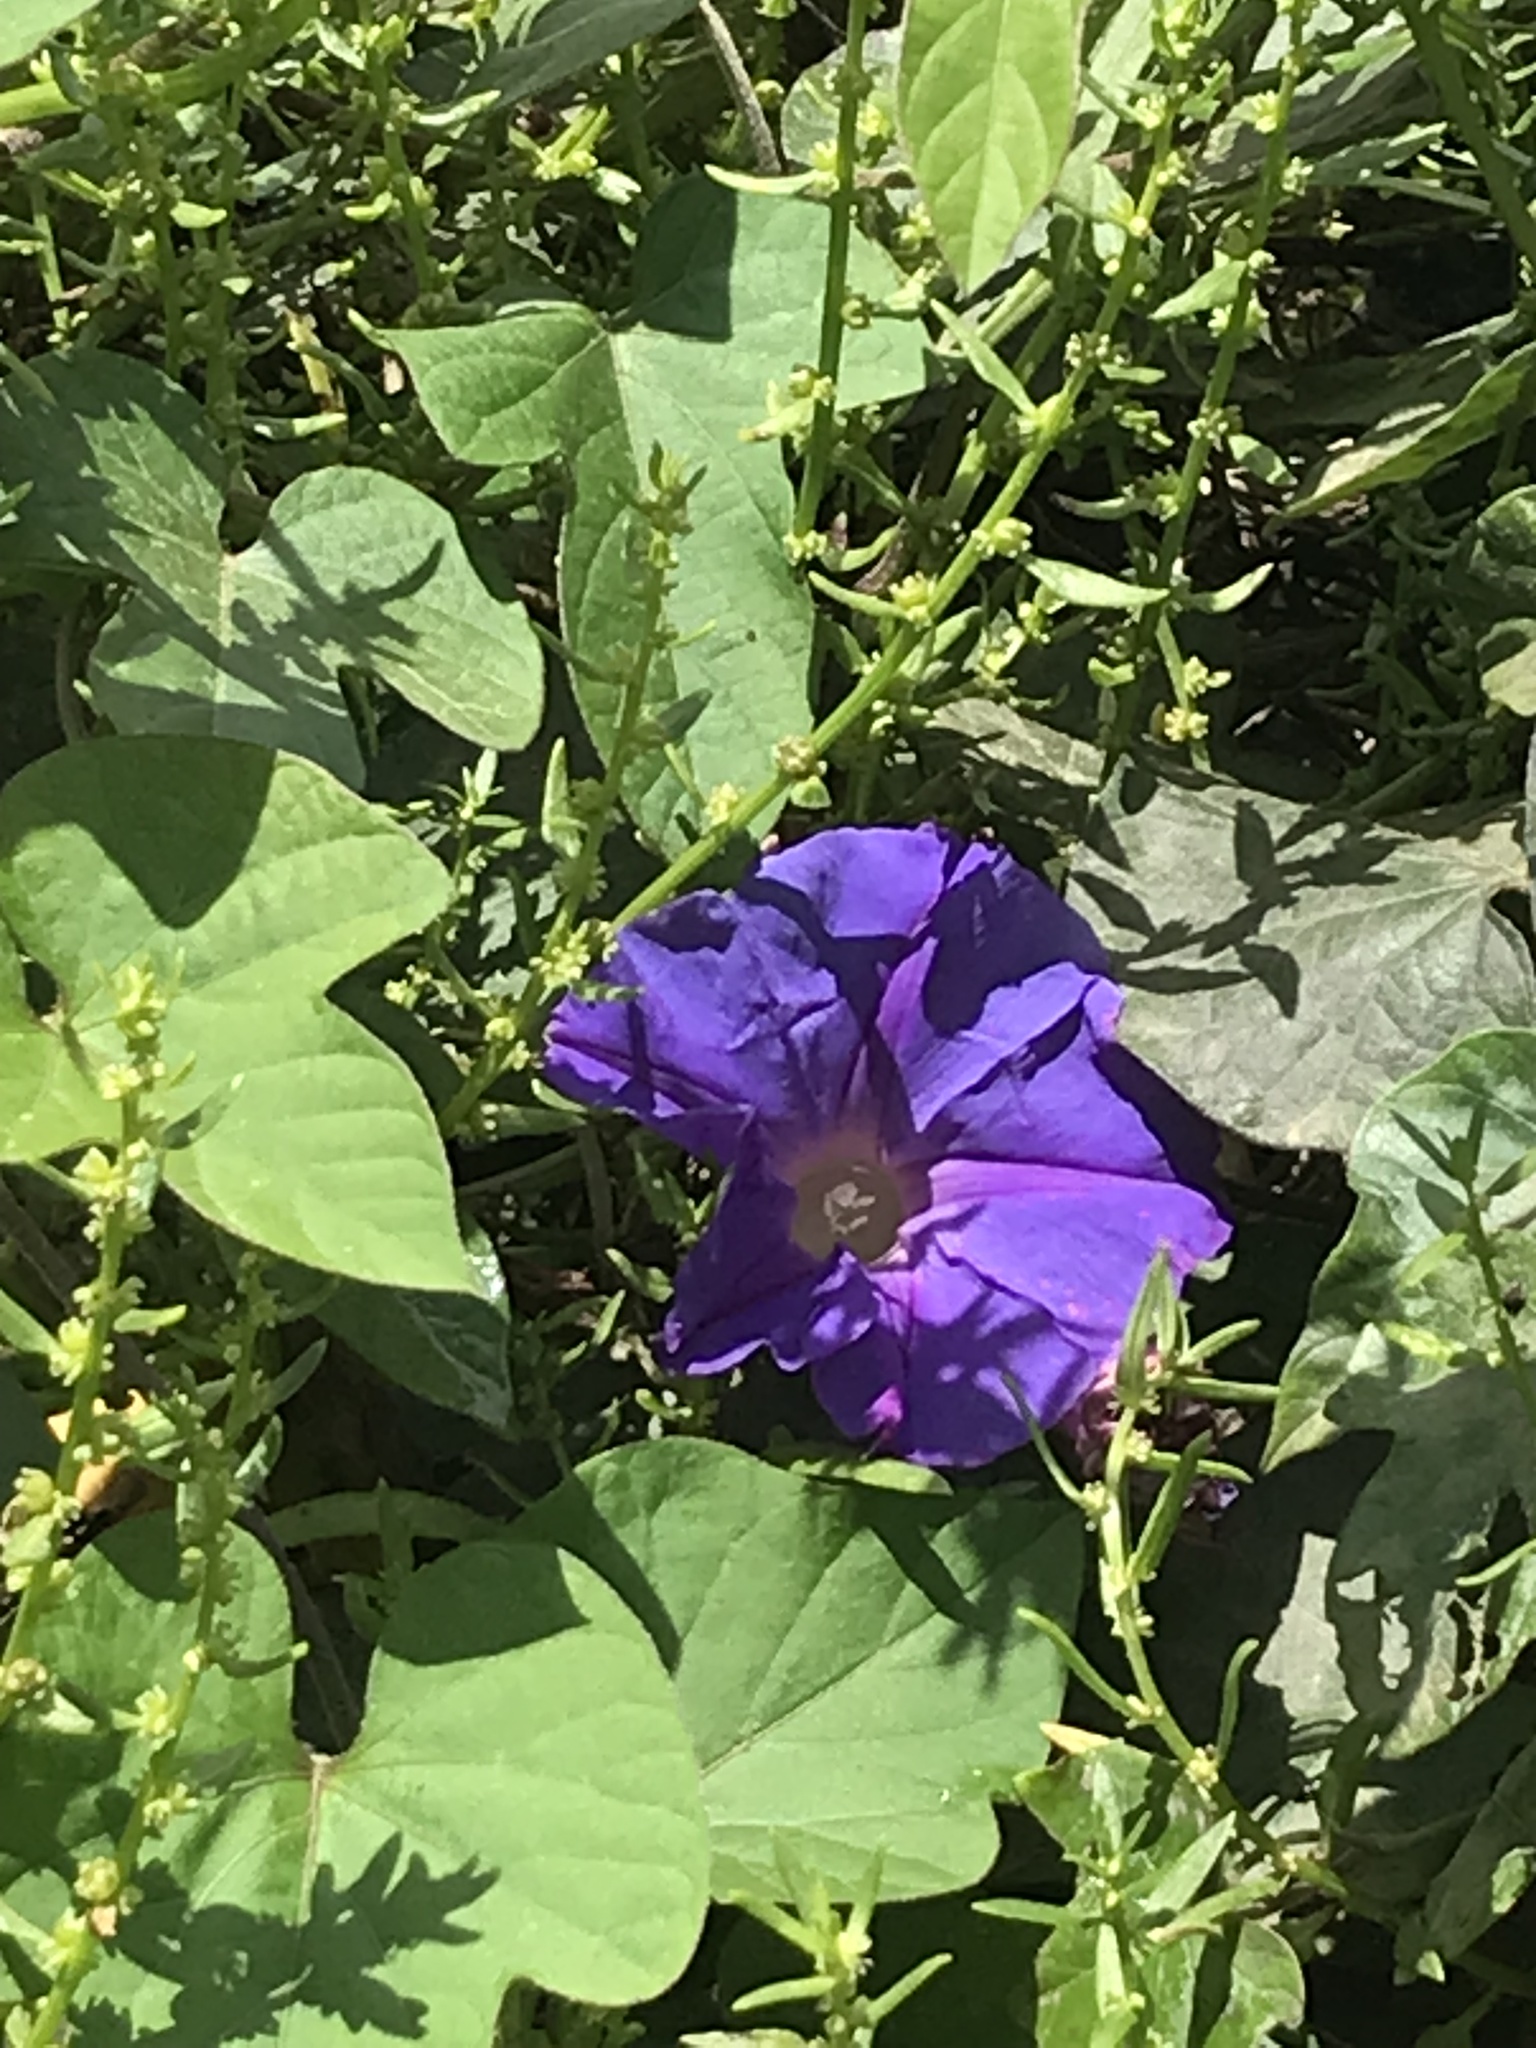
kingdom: Plantae
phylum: Tracheophyta
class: Magnoliopsida
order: Solanales
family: Convolvulaceae
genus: Ipomoea
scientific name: Ipomoea indica
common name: Blue dawnflower
